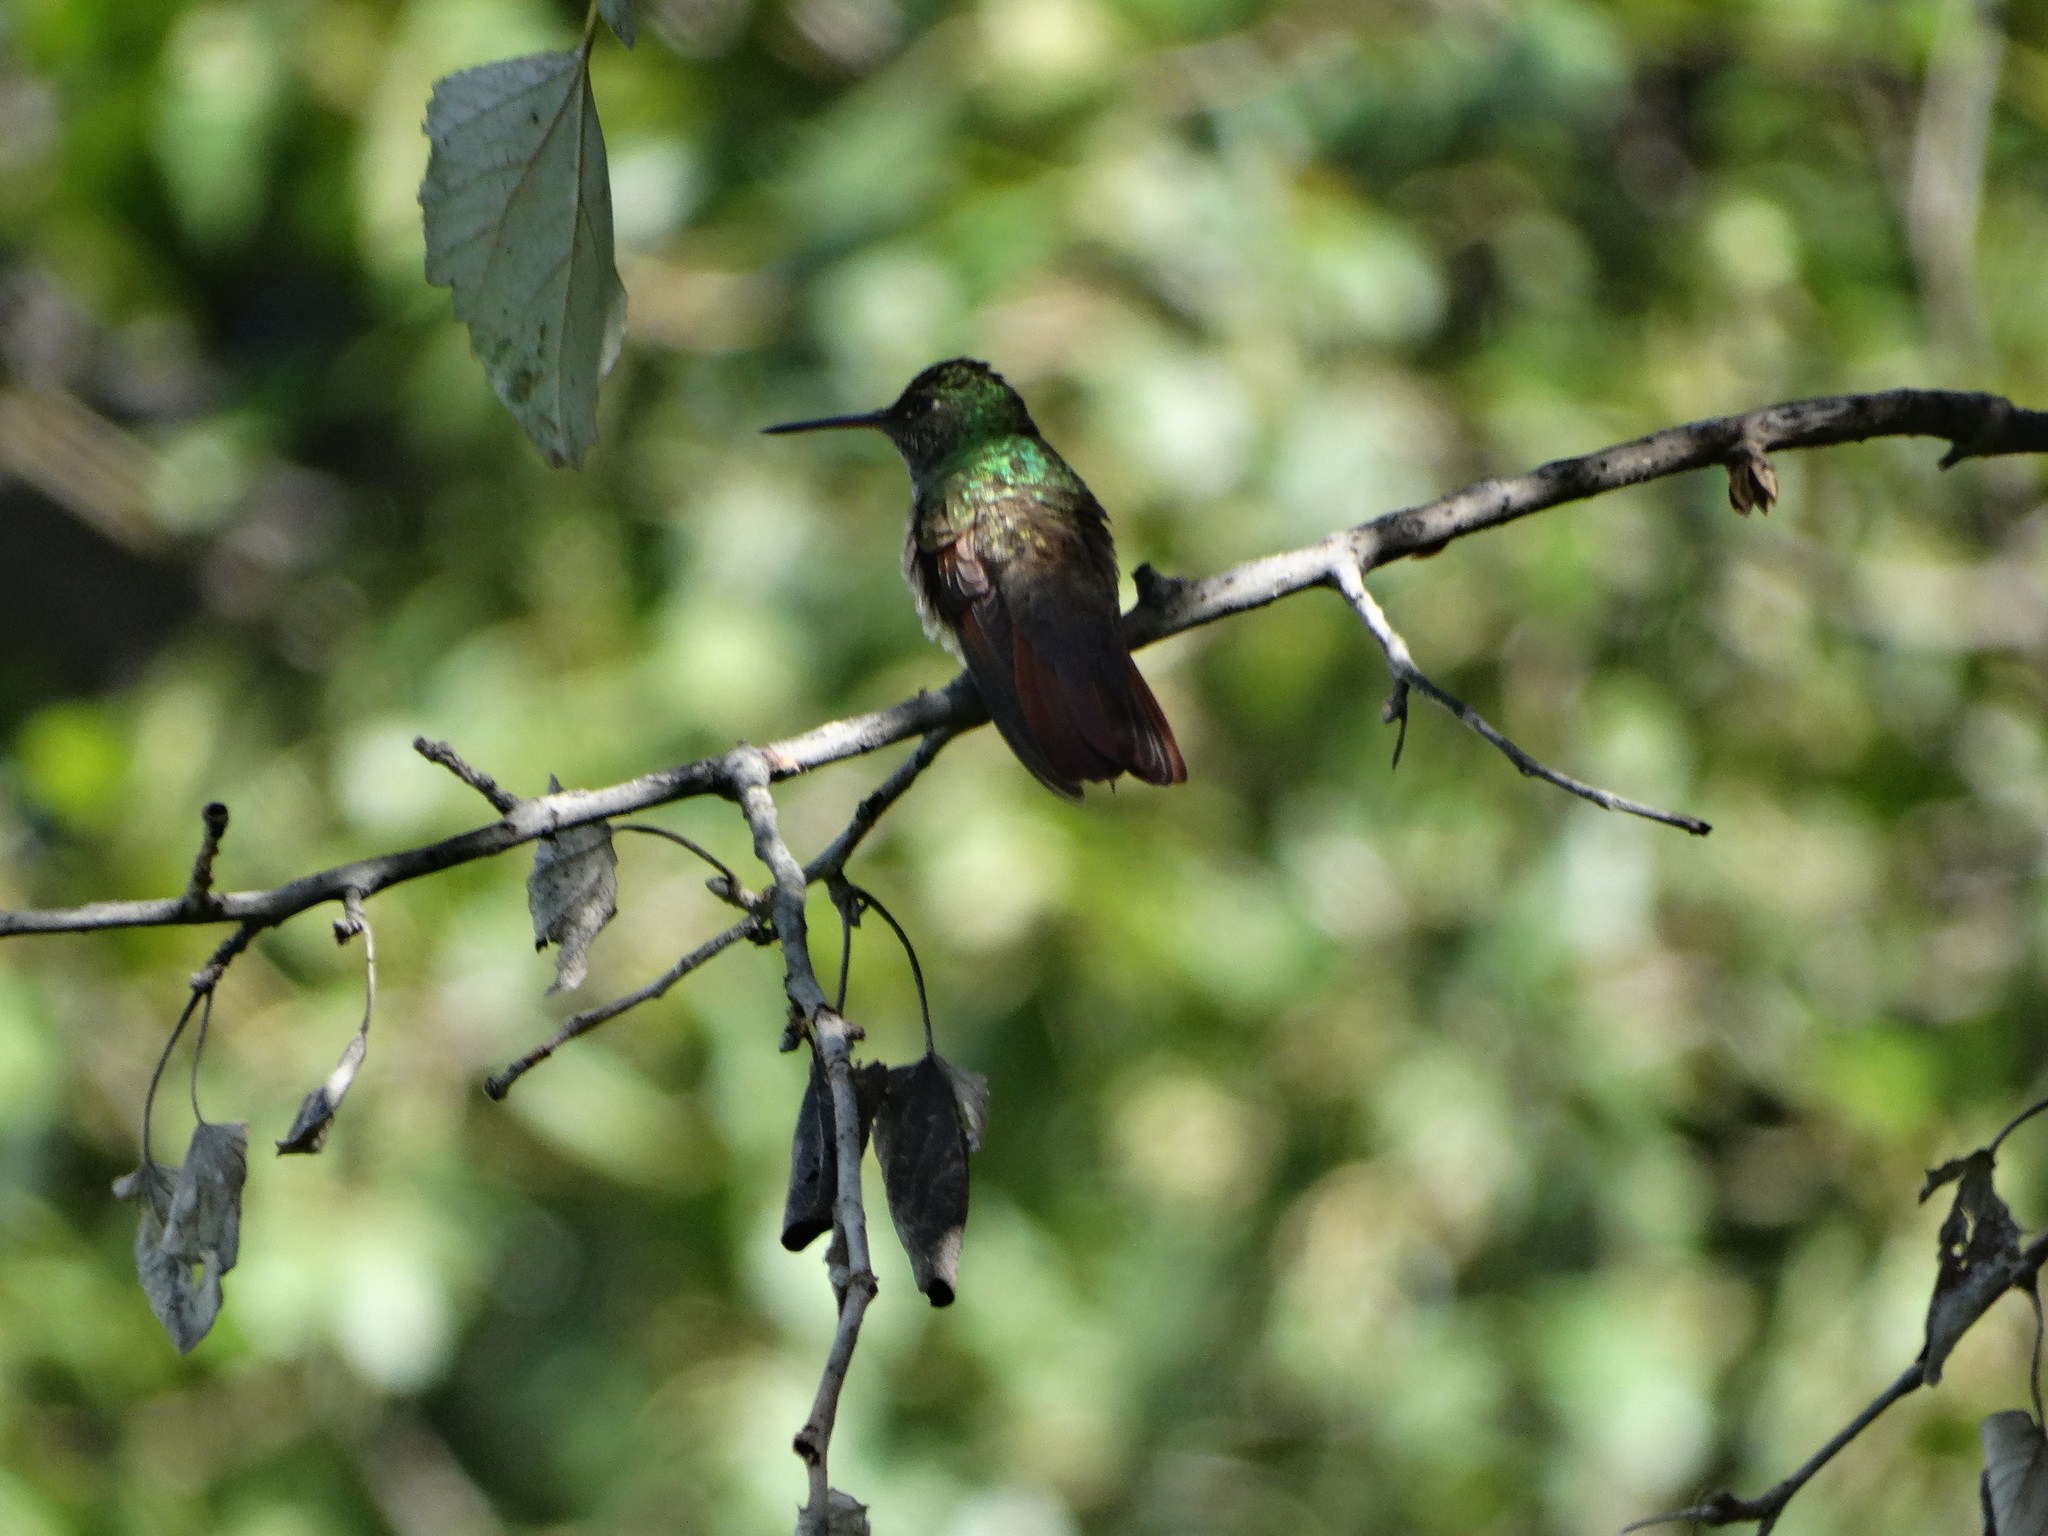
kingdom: Animalia
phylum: Chordata
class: Aves
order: Apodiformes
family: Trochilidae
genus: Saucerottia
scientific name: Saucerottia beryllina
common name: Berylline hummingbird
